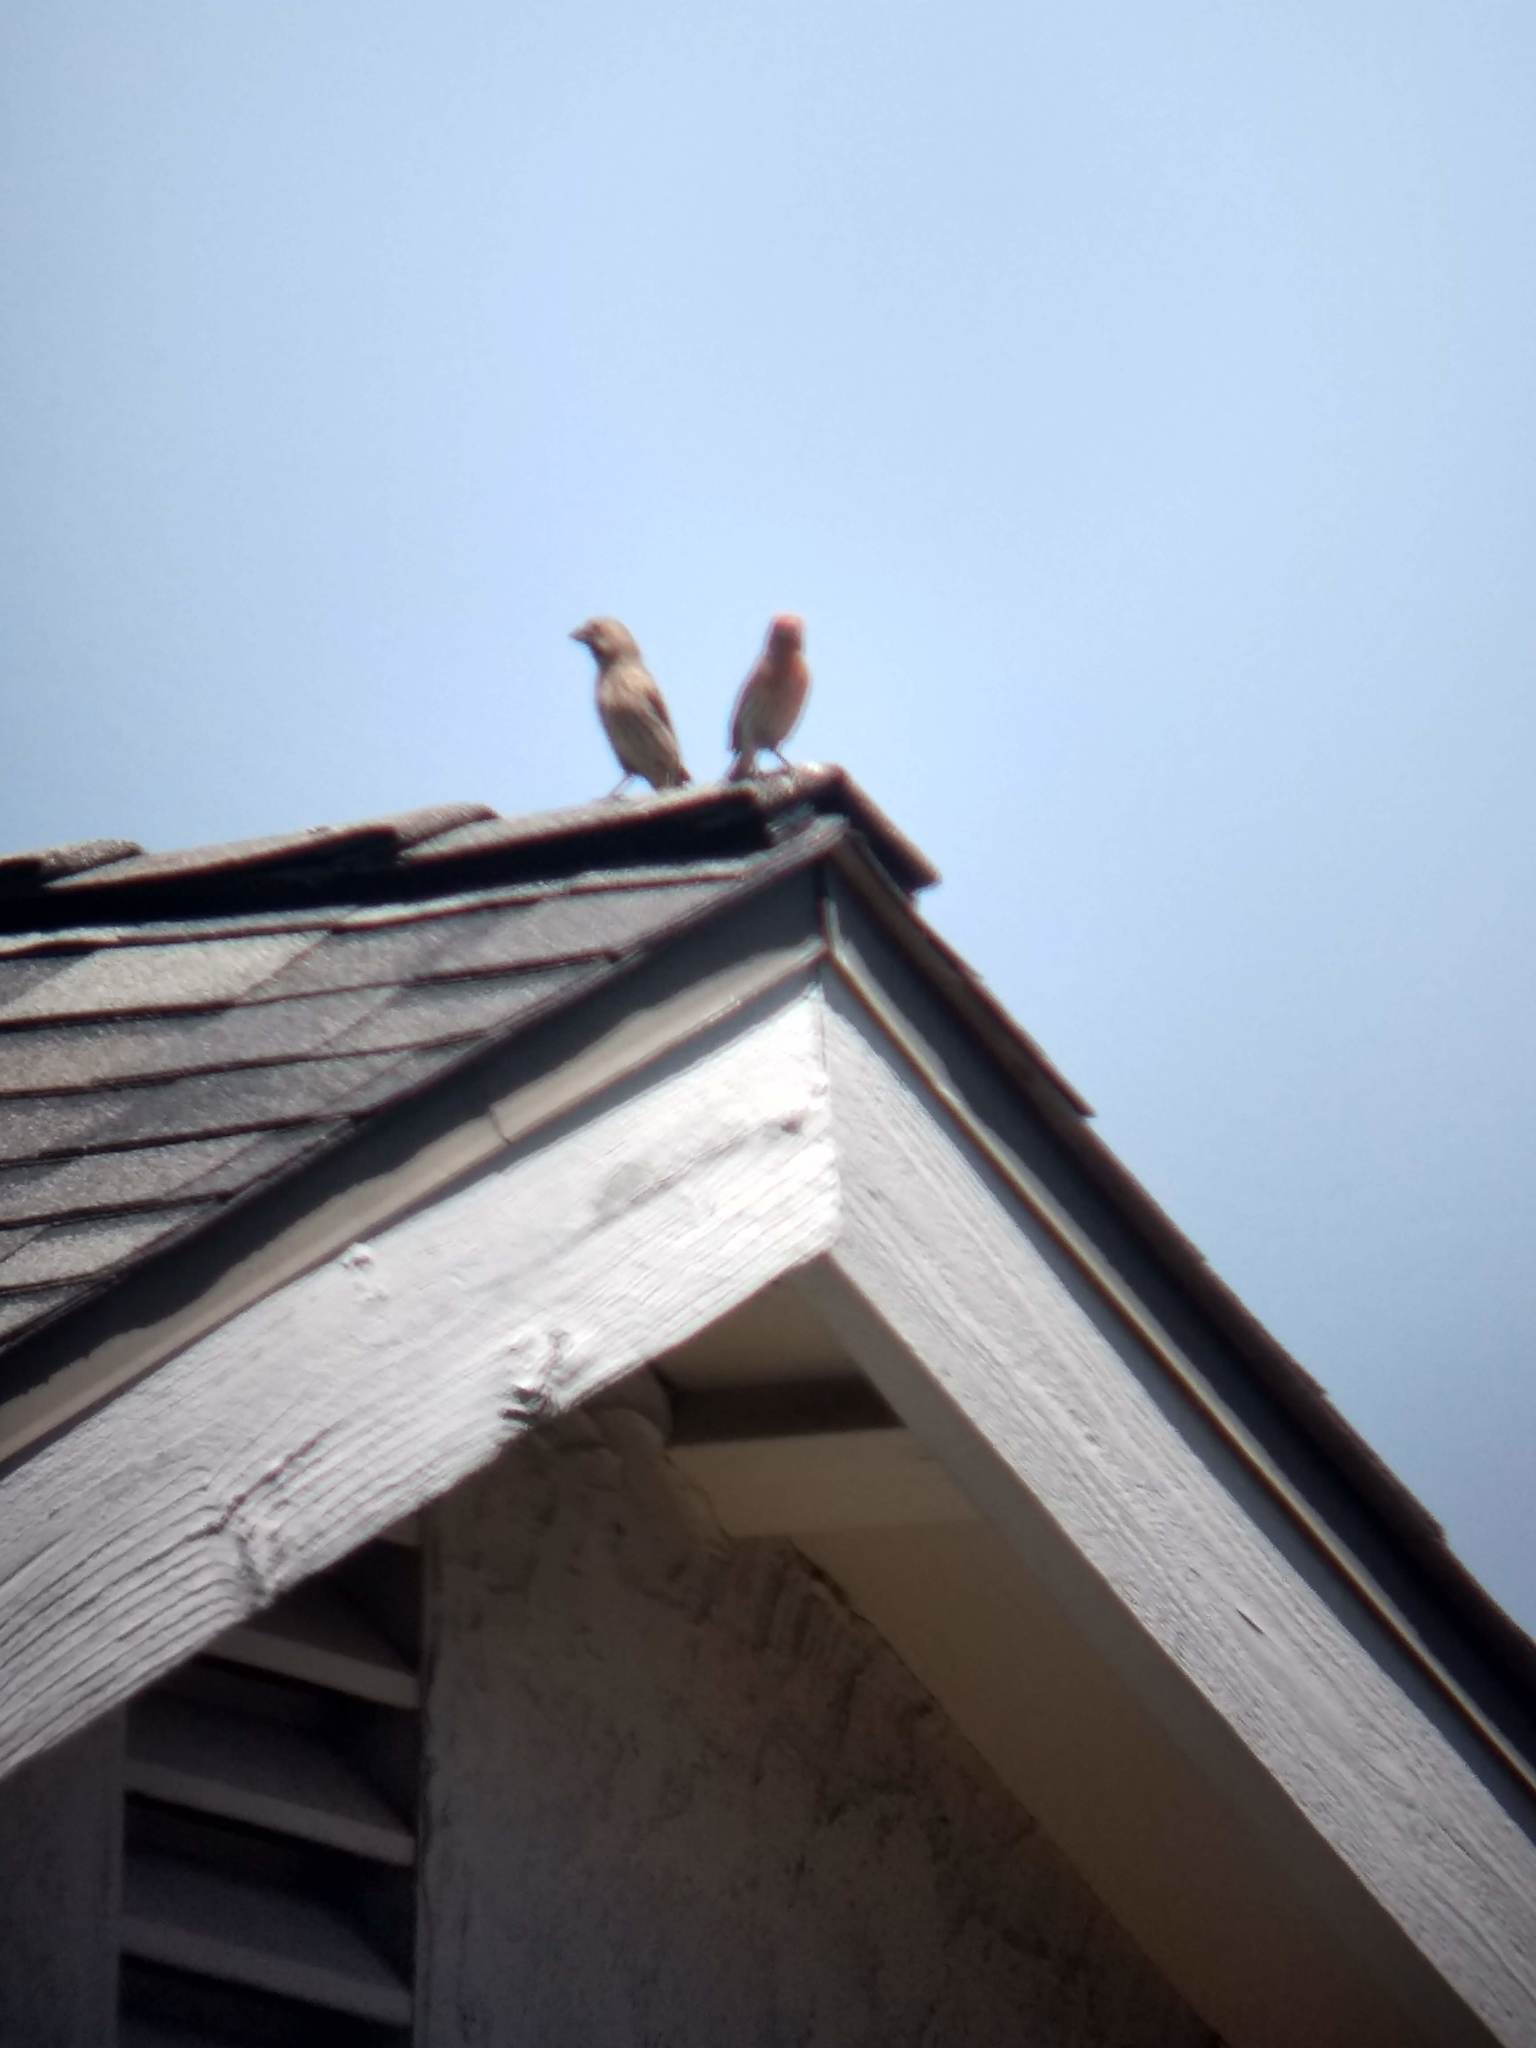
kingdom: Animalia
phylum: Chordata
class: Aves
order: Passeriformes
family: Fringillidae
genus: Haemorhous
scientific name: Haemorhous mexicanus
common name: House finch
